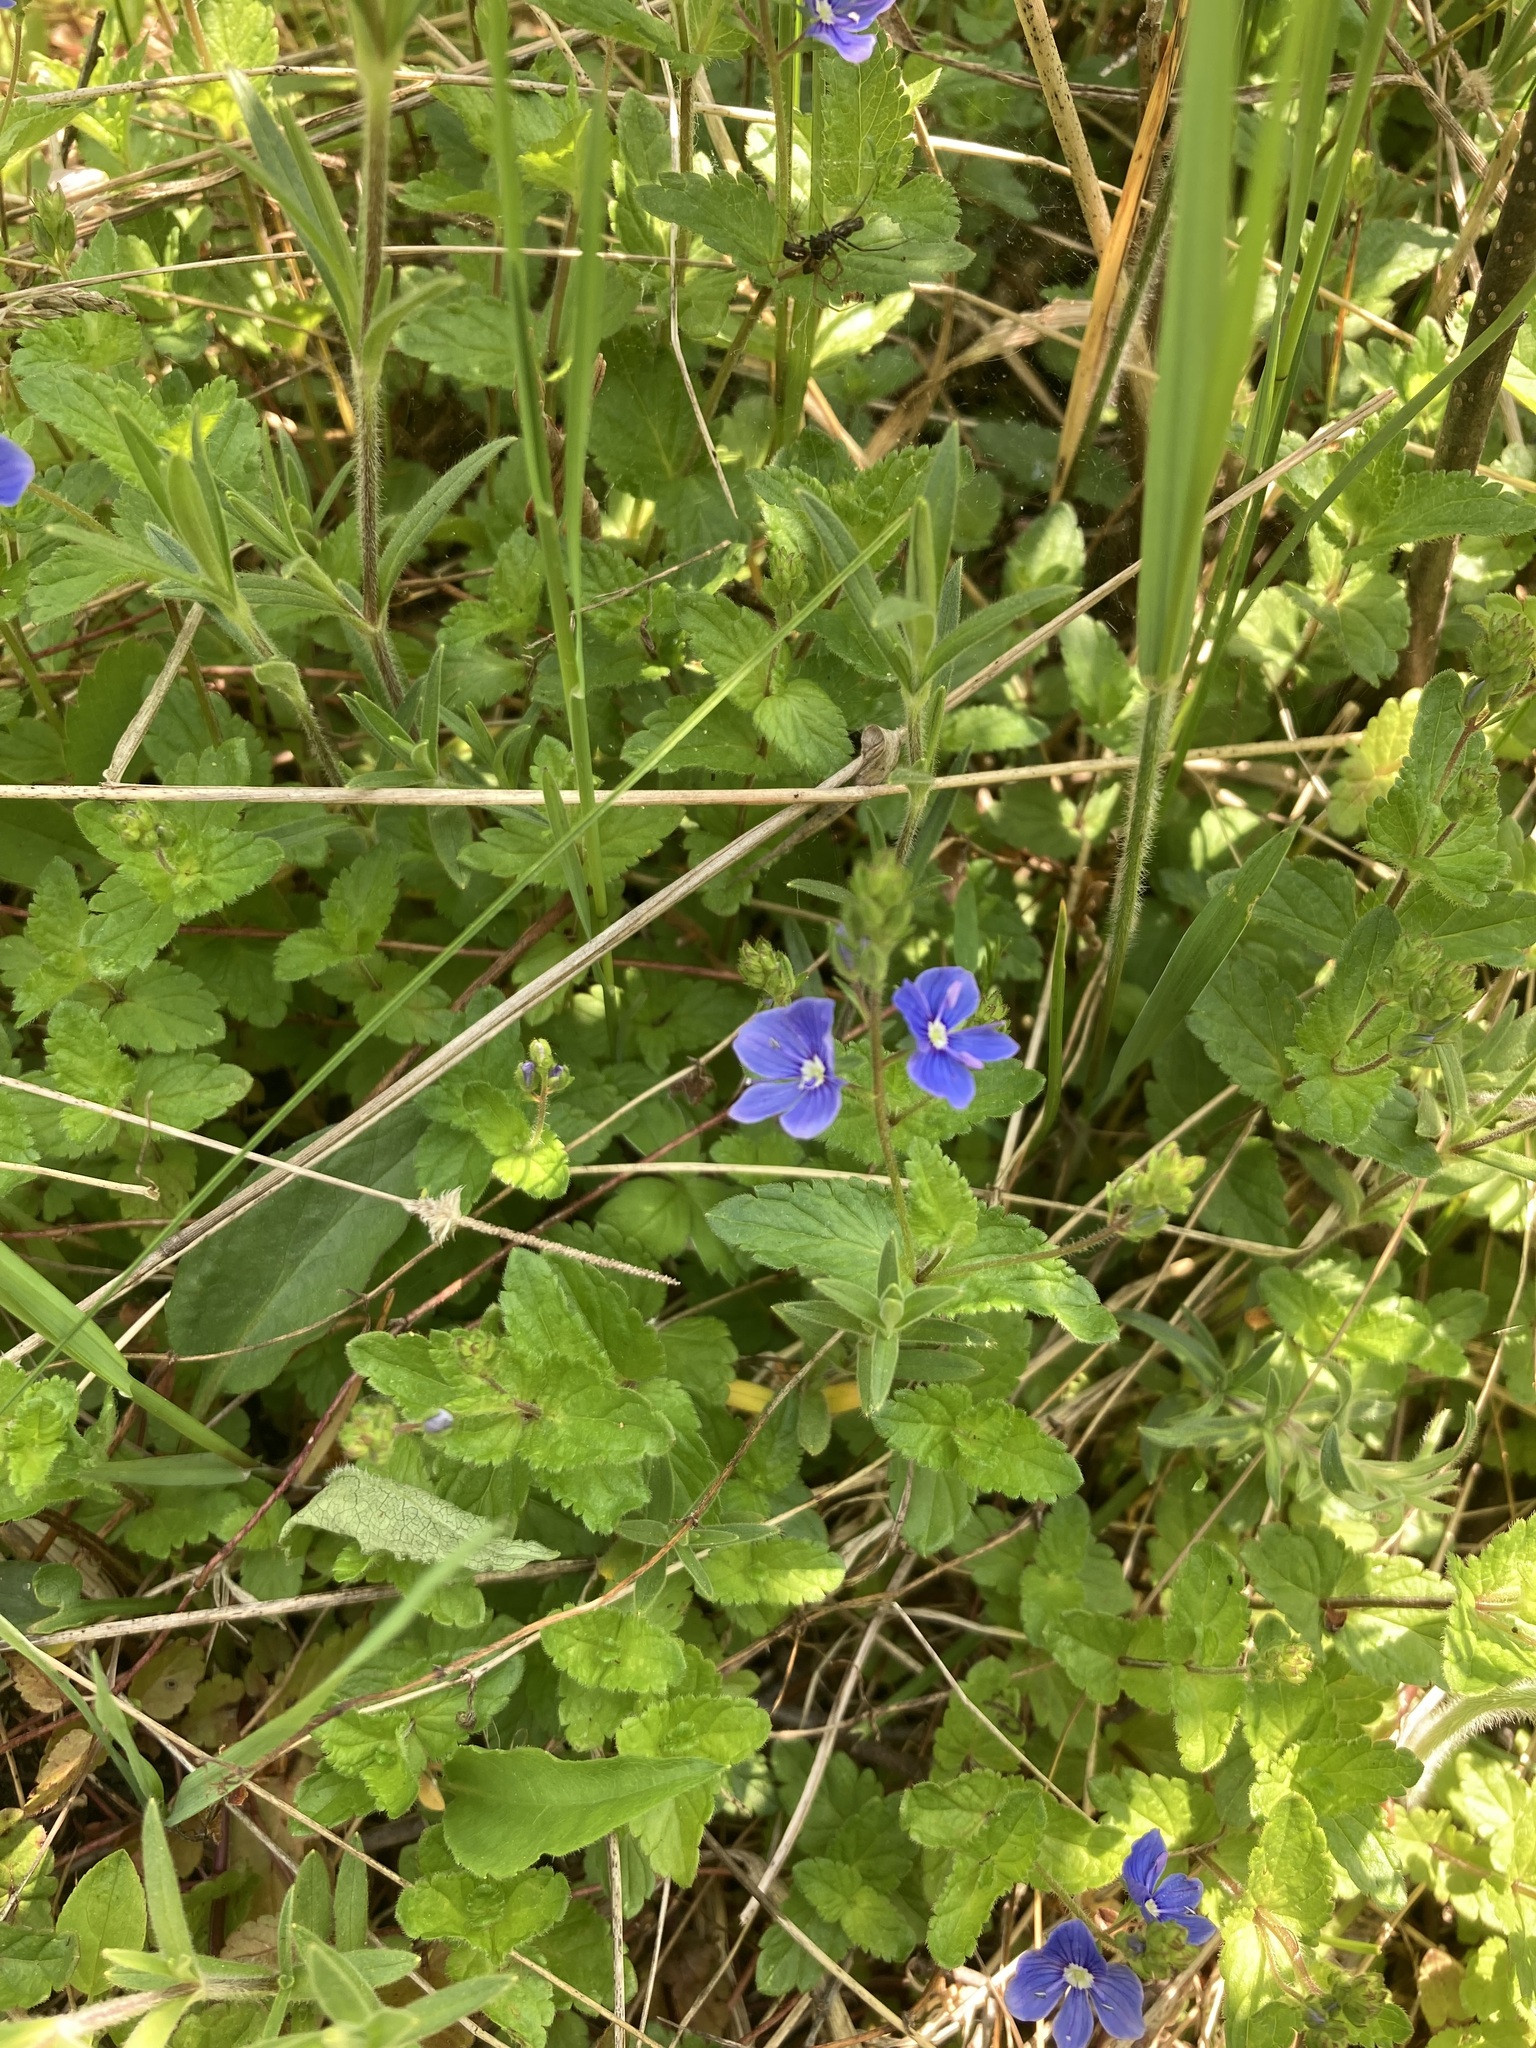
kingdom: Plantae
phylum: Tracheophyta
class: Magnoliopsida
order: Lamiales
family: Plantaginaceae
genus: Veronica
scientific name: Veronica chamaedrys
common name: Germander speedwell
